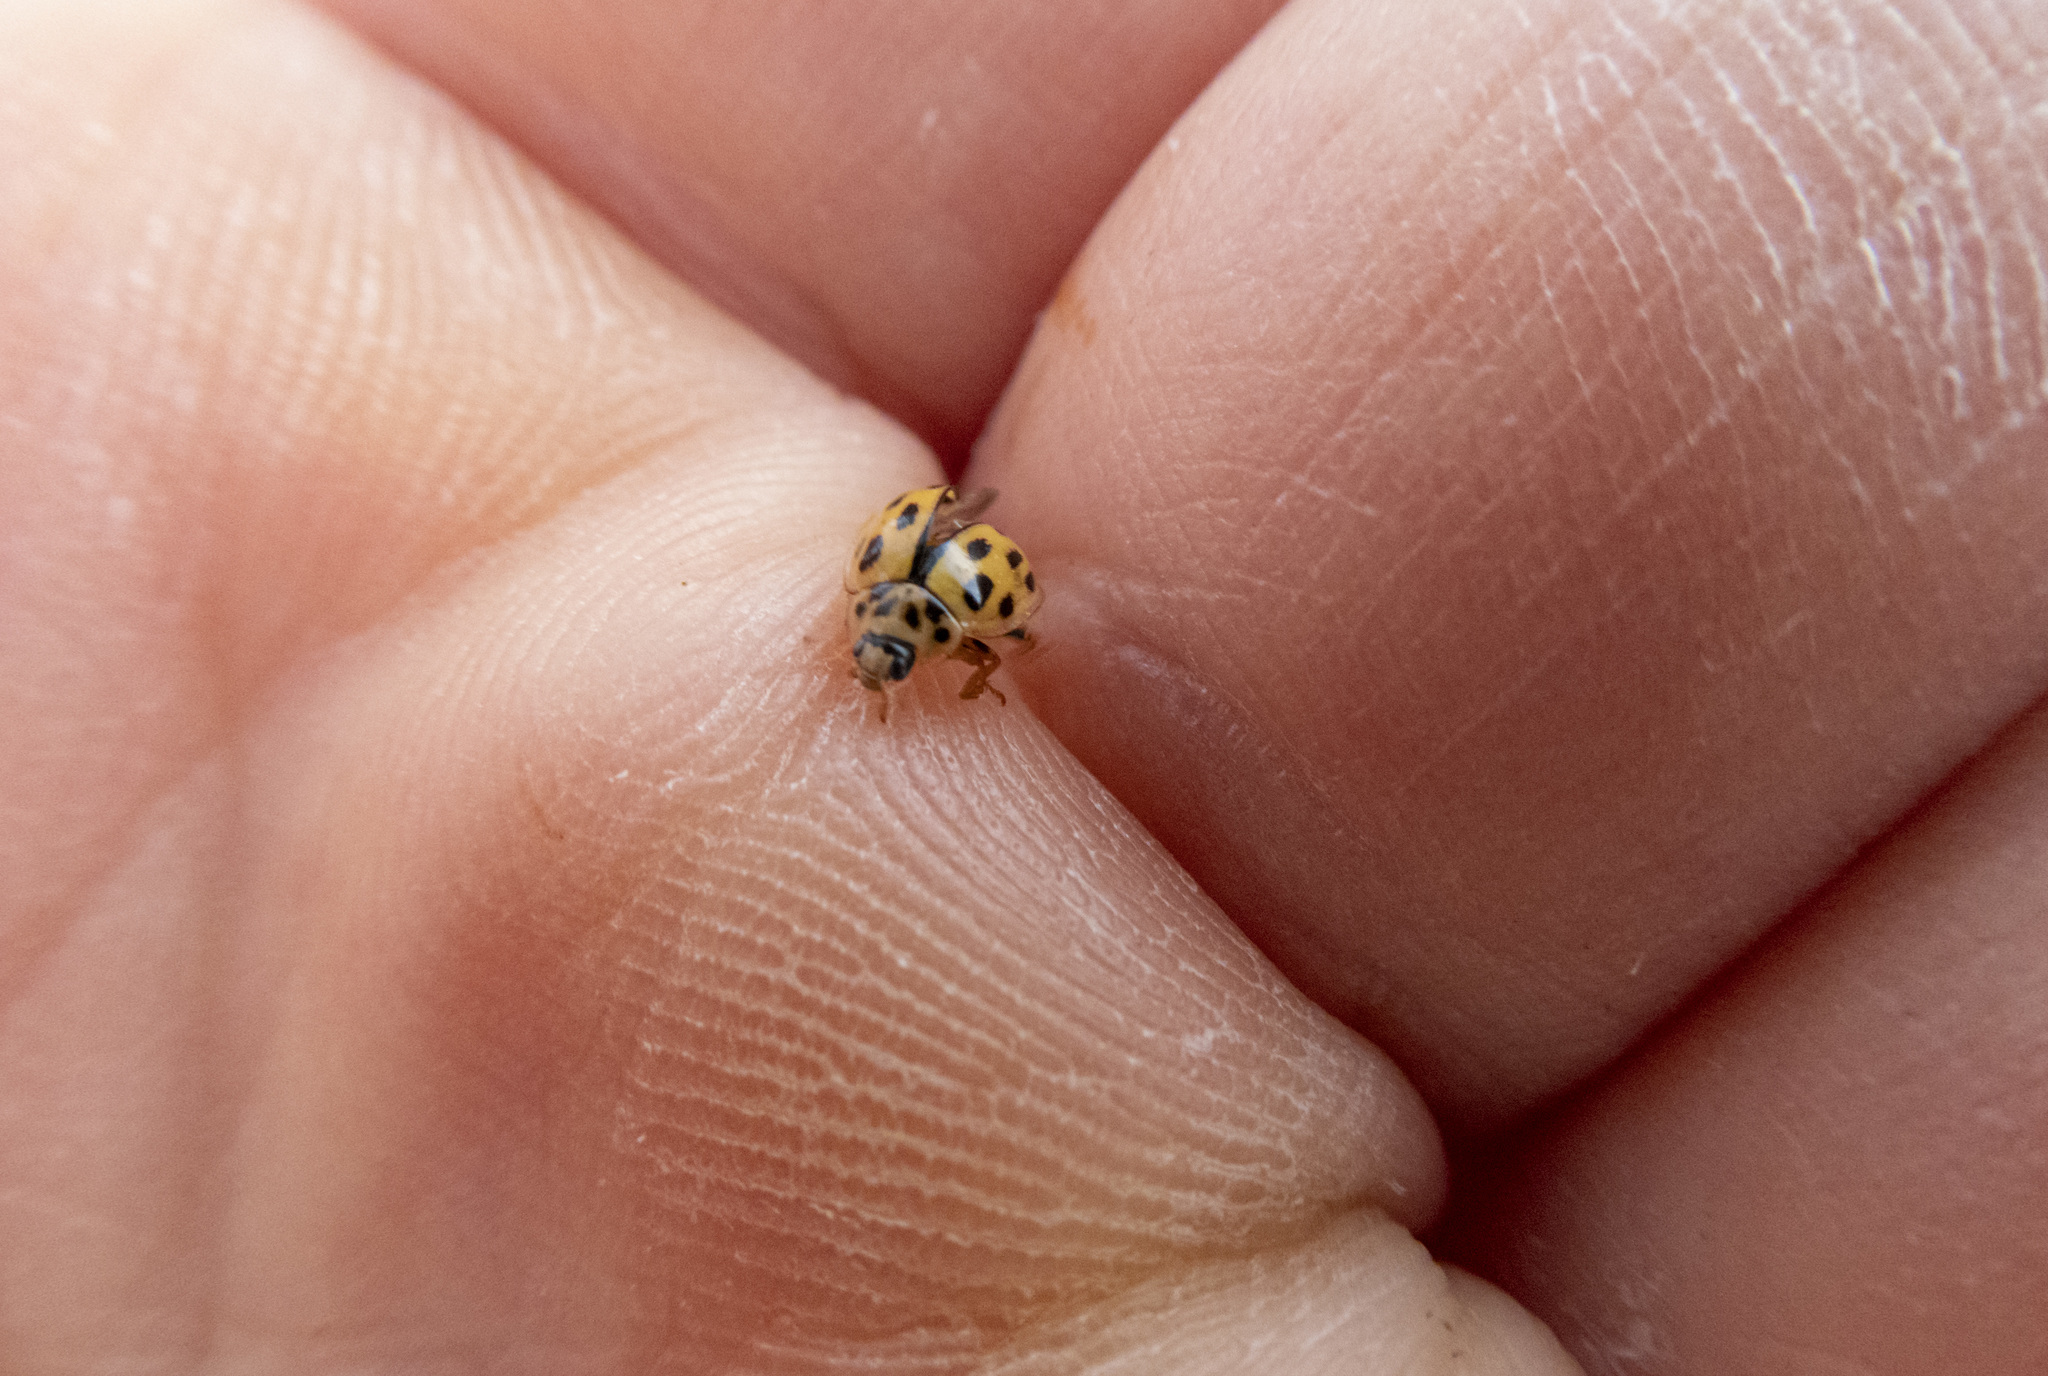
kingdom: Animalia
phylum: Arthropoda
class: Insecta
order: Coleoptera
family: Coccinellidae
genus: Propylaea
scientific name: Propylaea quatuordecimpunctata
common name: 14-spotted ladybird beetle
